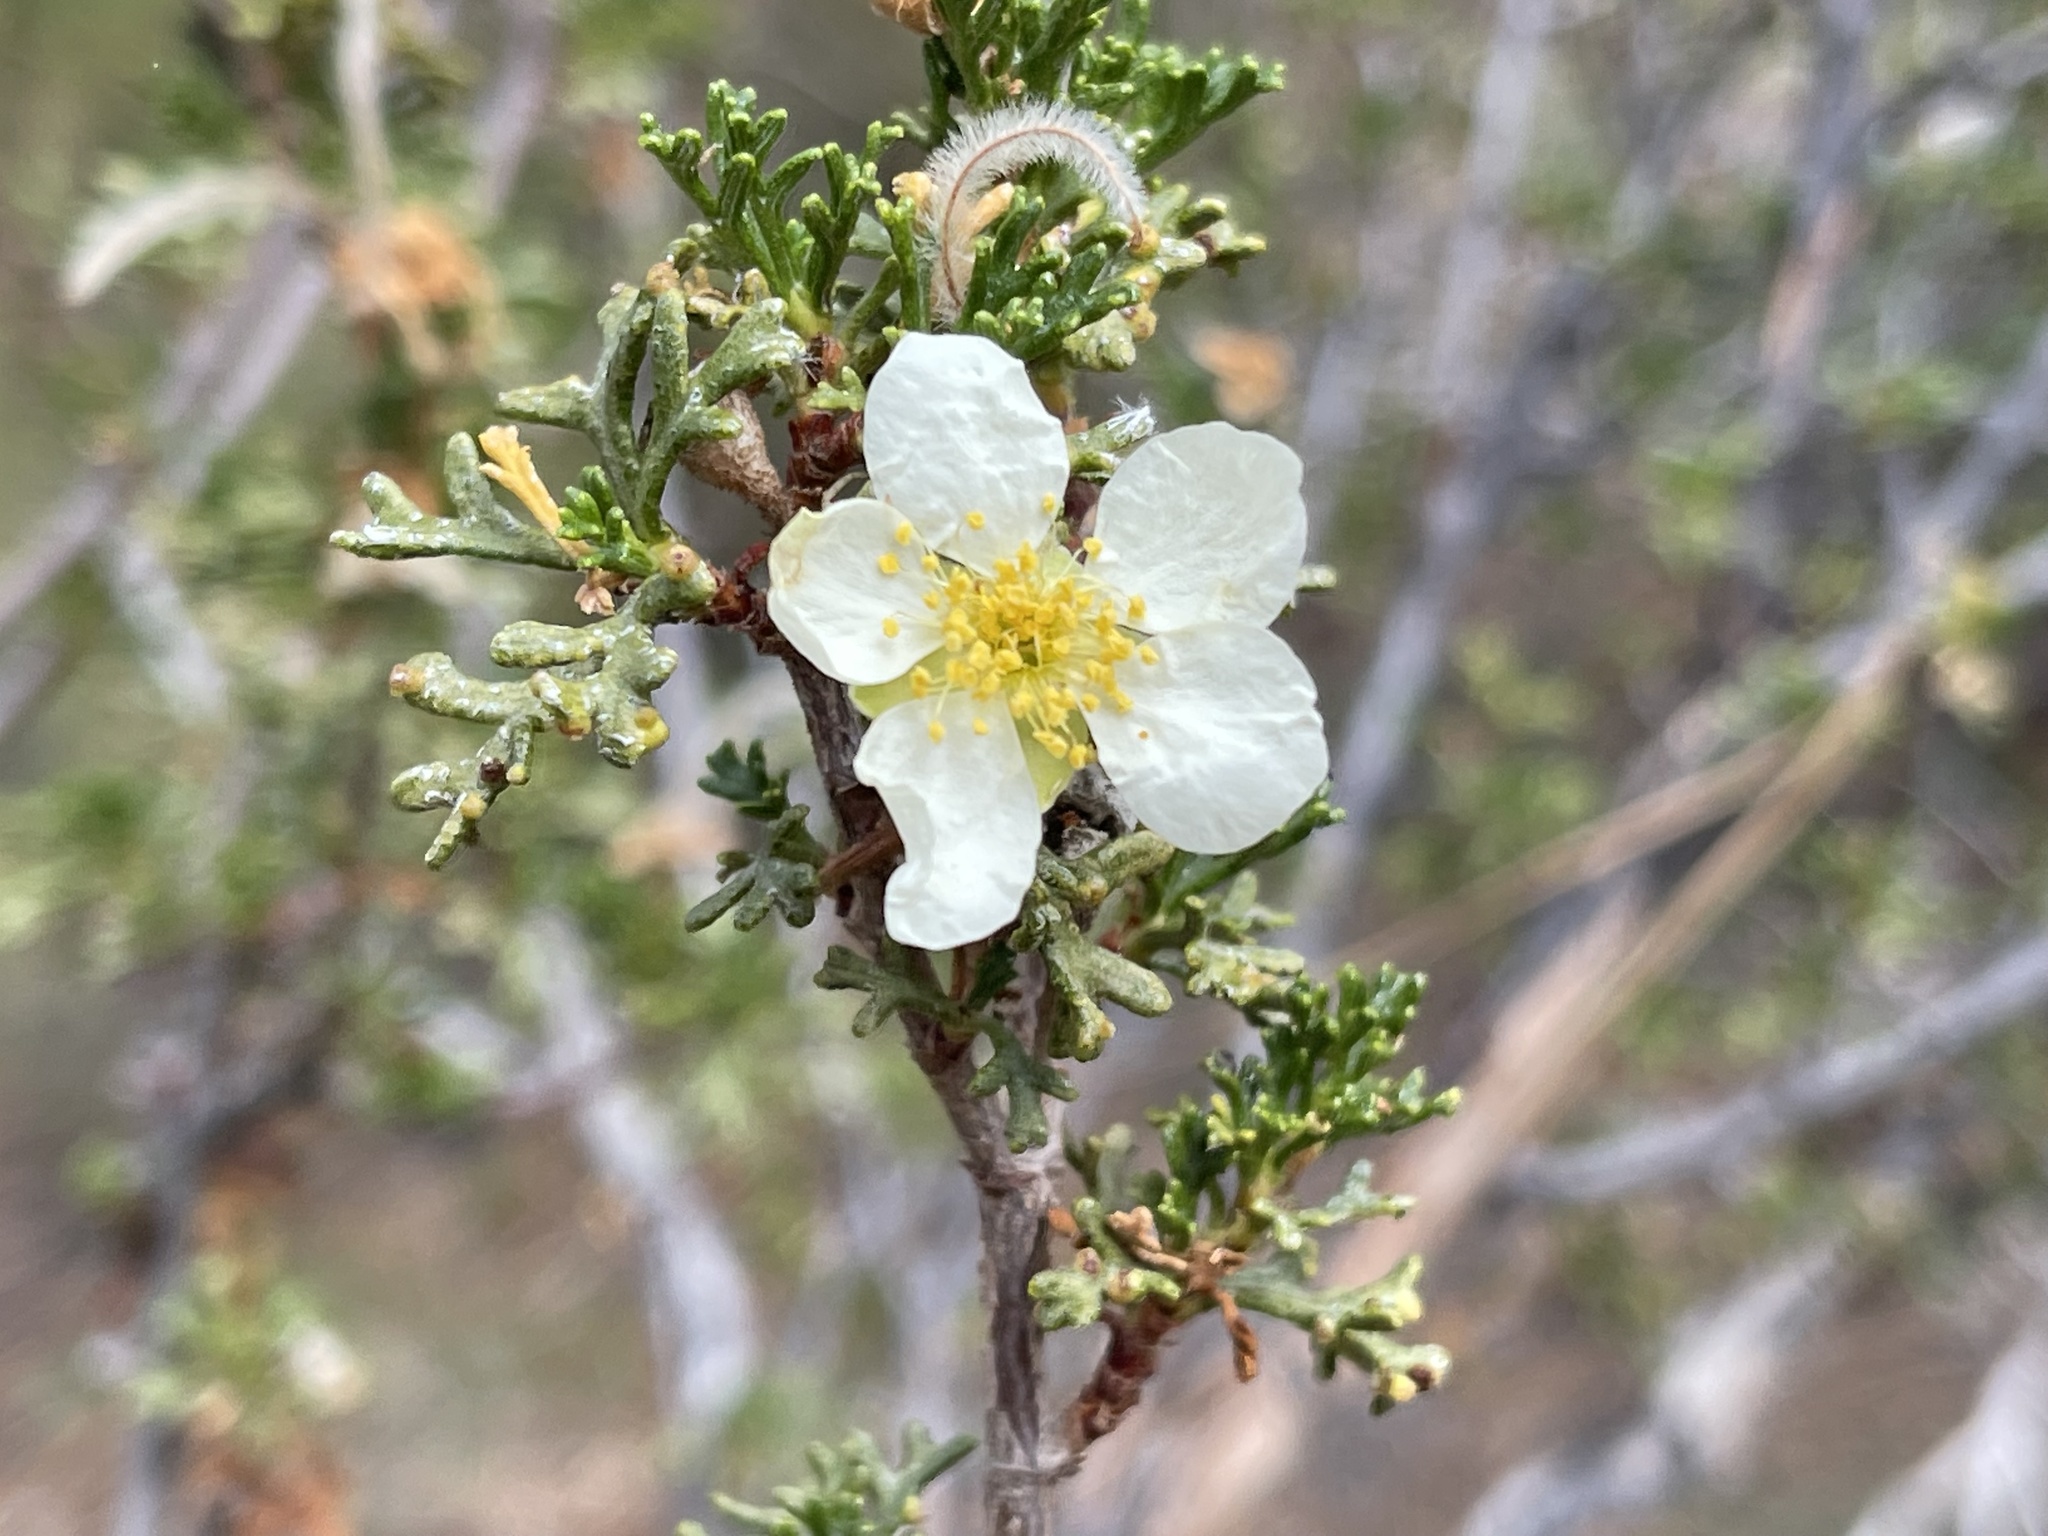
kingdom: Plantae
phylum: Tracheophyta
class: Magnoliopsida
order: Rosales
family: Rosaceae
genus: Purshia
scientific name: Purshia stansburiana
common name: Stansbury's cliffrose
